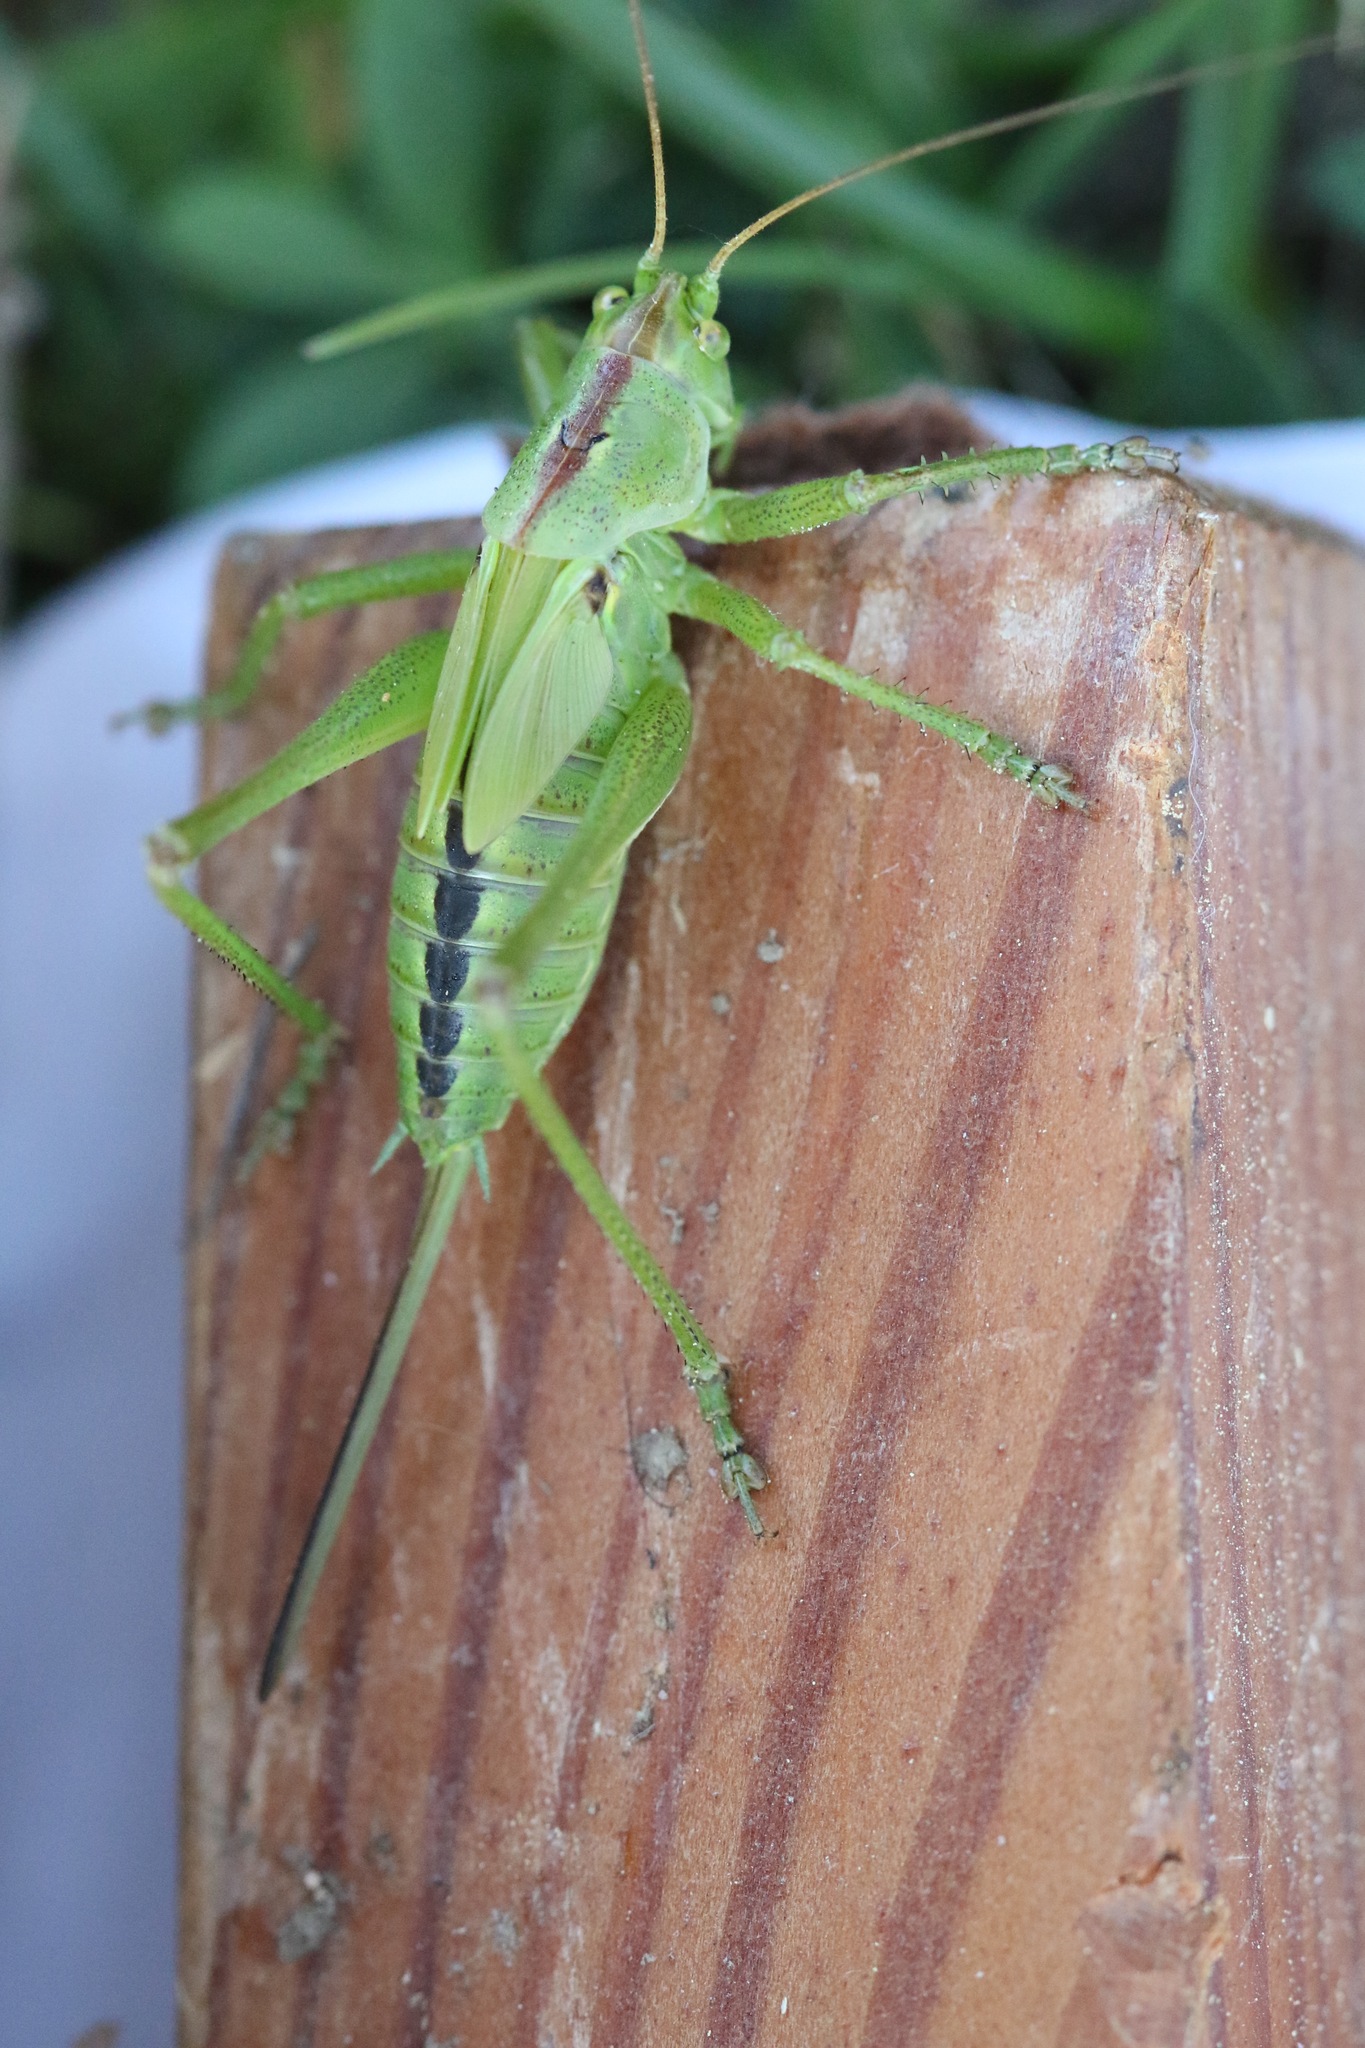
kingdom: Animalia
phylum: Arthropoda
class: Insecta
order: Orthoptera
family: Tettigoniidae
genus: Tettigonia
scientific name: Tettigonia viridissima
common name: Great green bush-cricket
